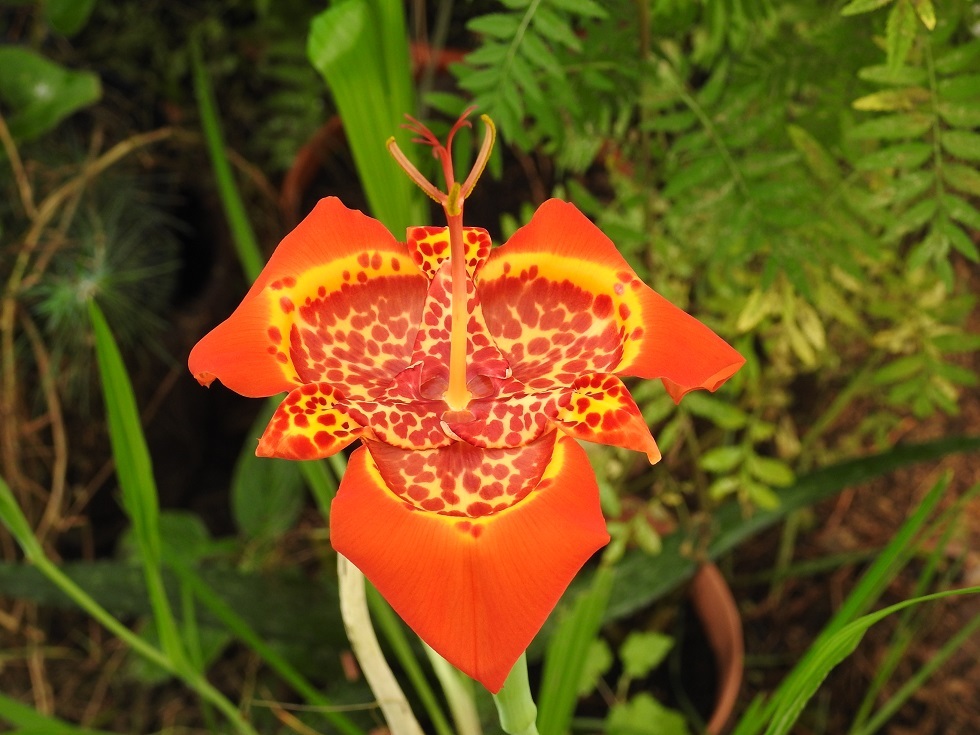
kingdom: Plantae
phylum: Tracheophyta
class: Liliopsida
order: Asparagales
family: Iridaceae
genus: Tigridia
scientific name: Tigridia pavonia
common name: Peacock-flower
